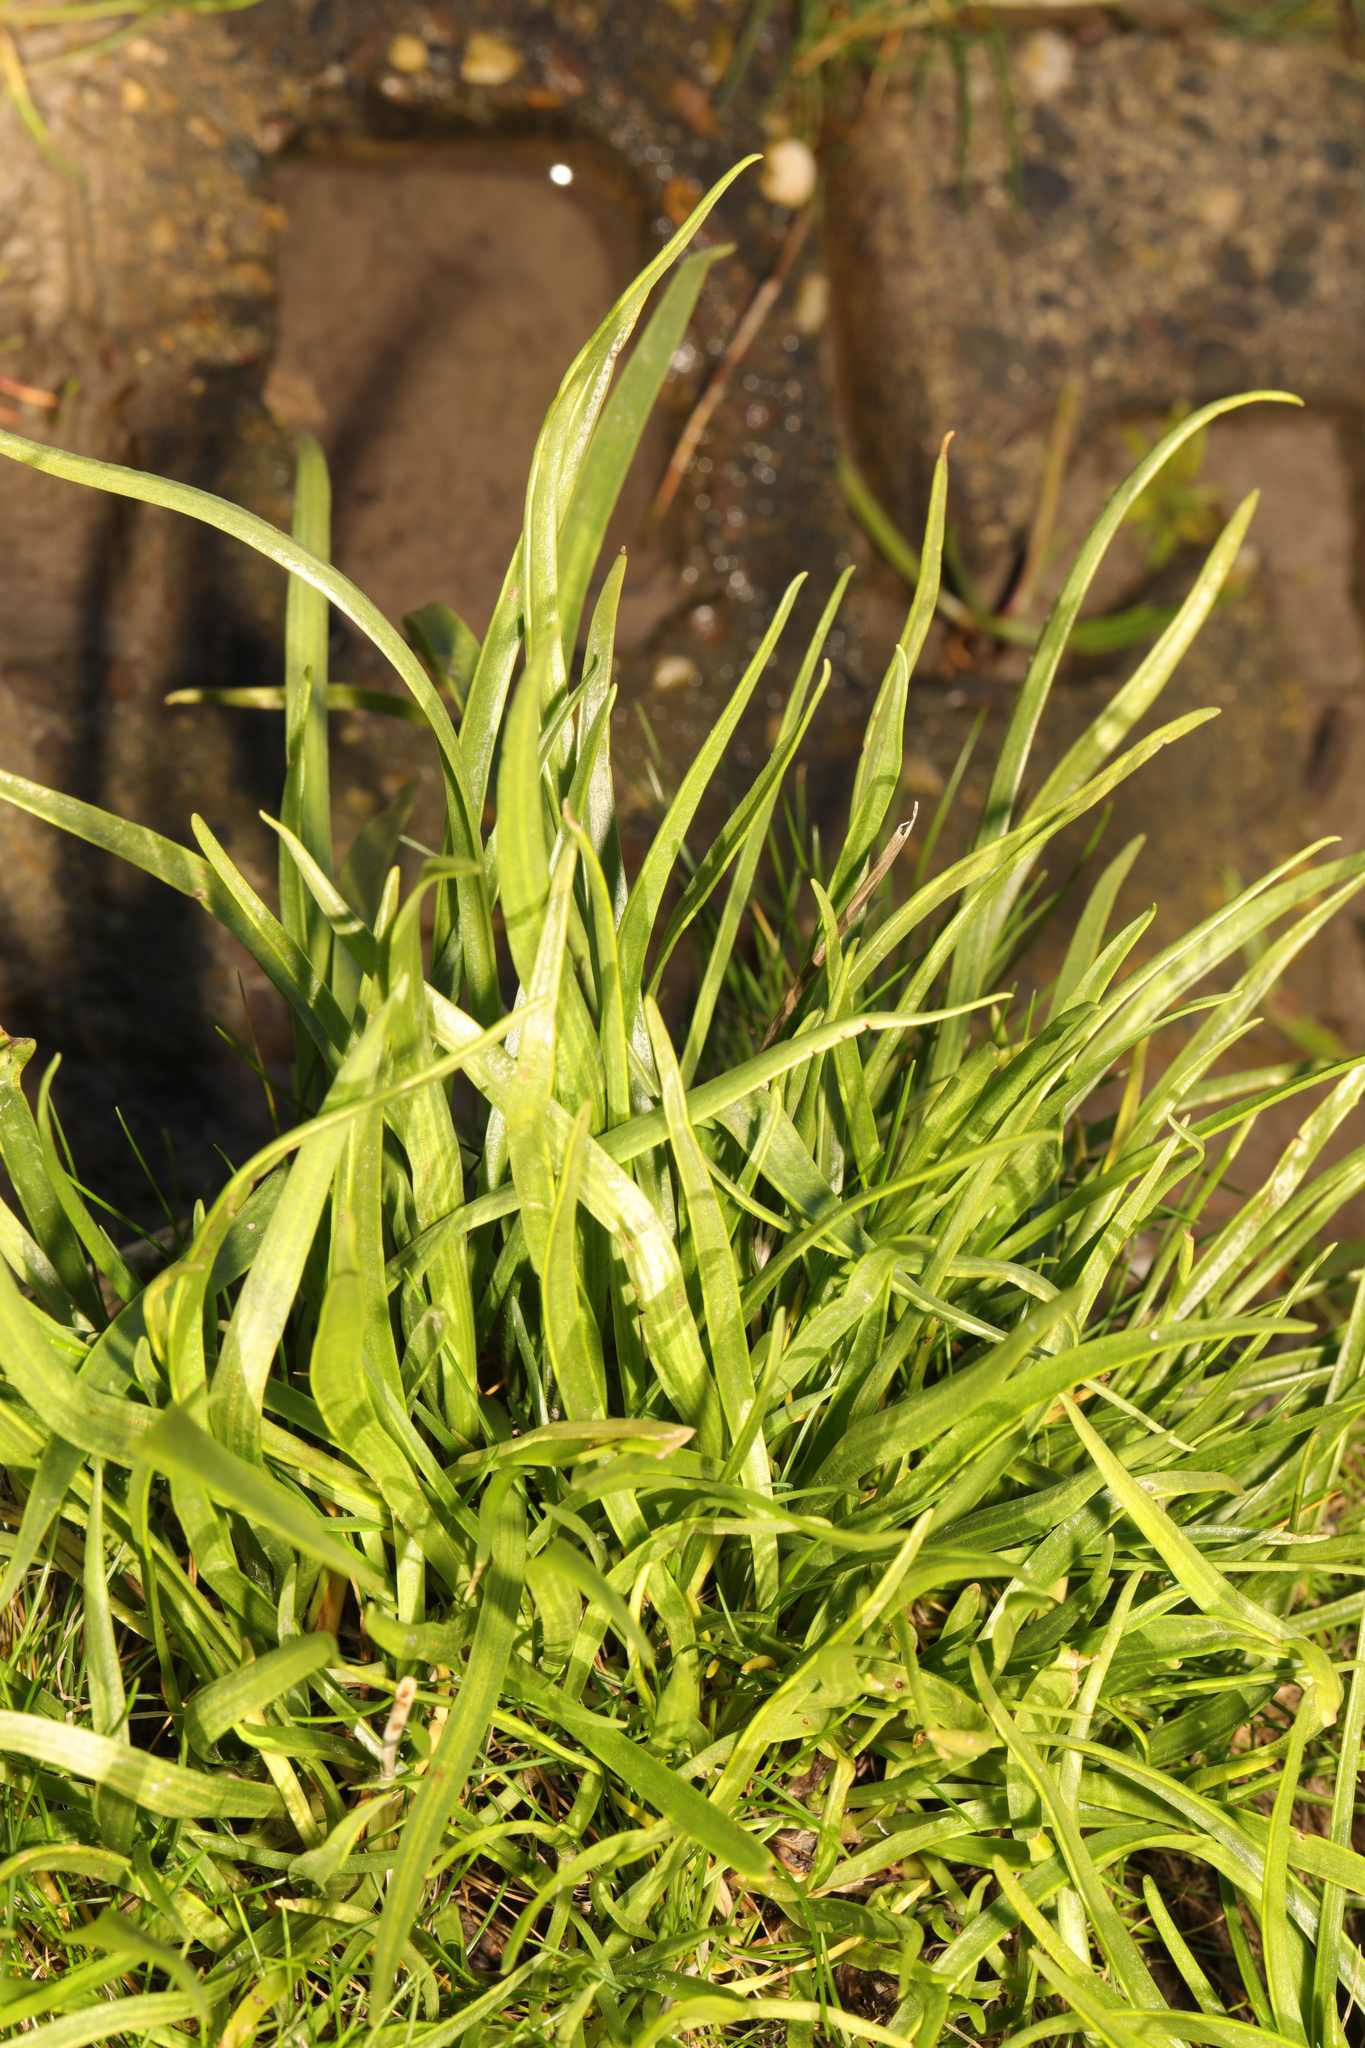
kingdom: Plantae
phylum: Tracheophyta
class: Magnoliopsida
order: Lamiales
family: Plantaginaceae
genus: Plantago
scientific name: Plantago maritima
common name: Sea plantain
